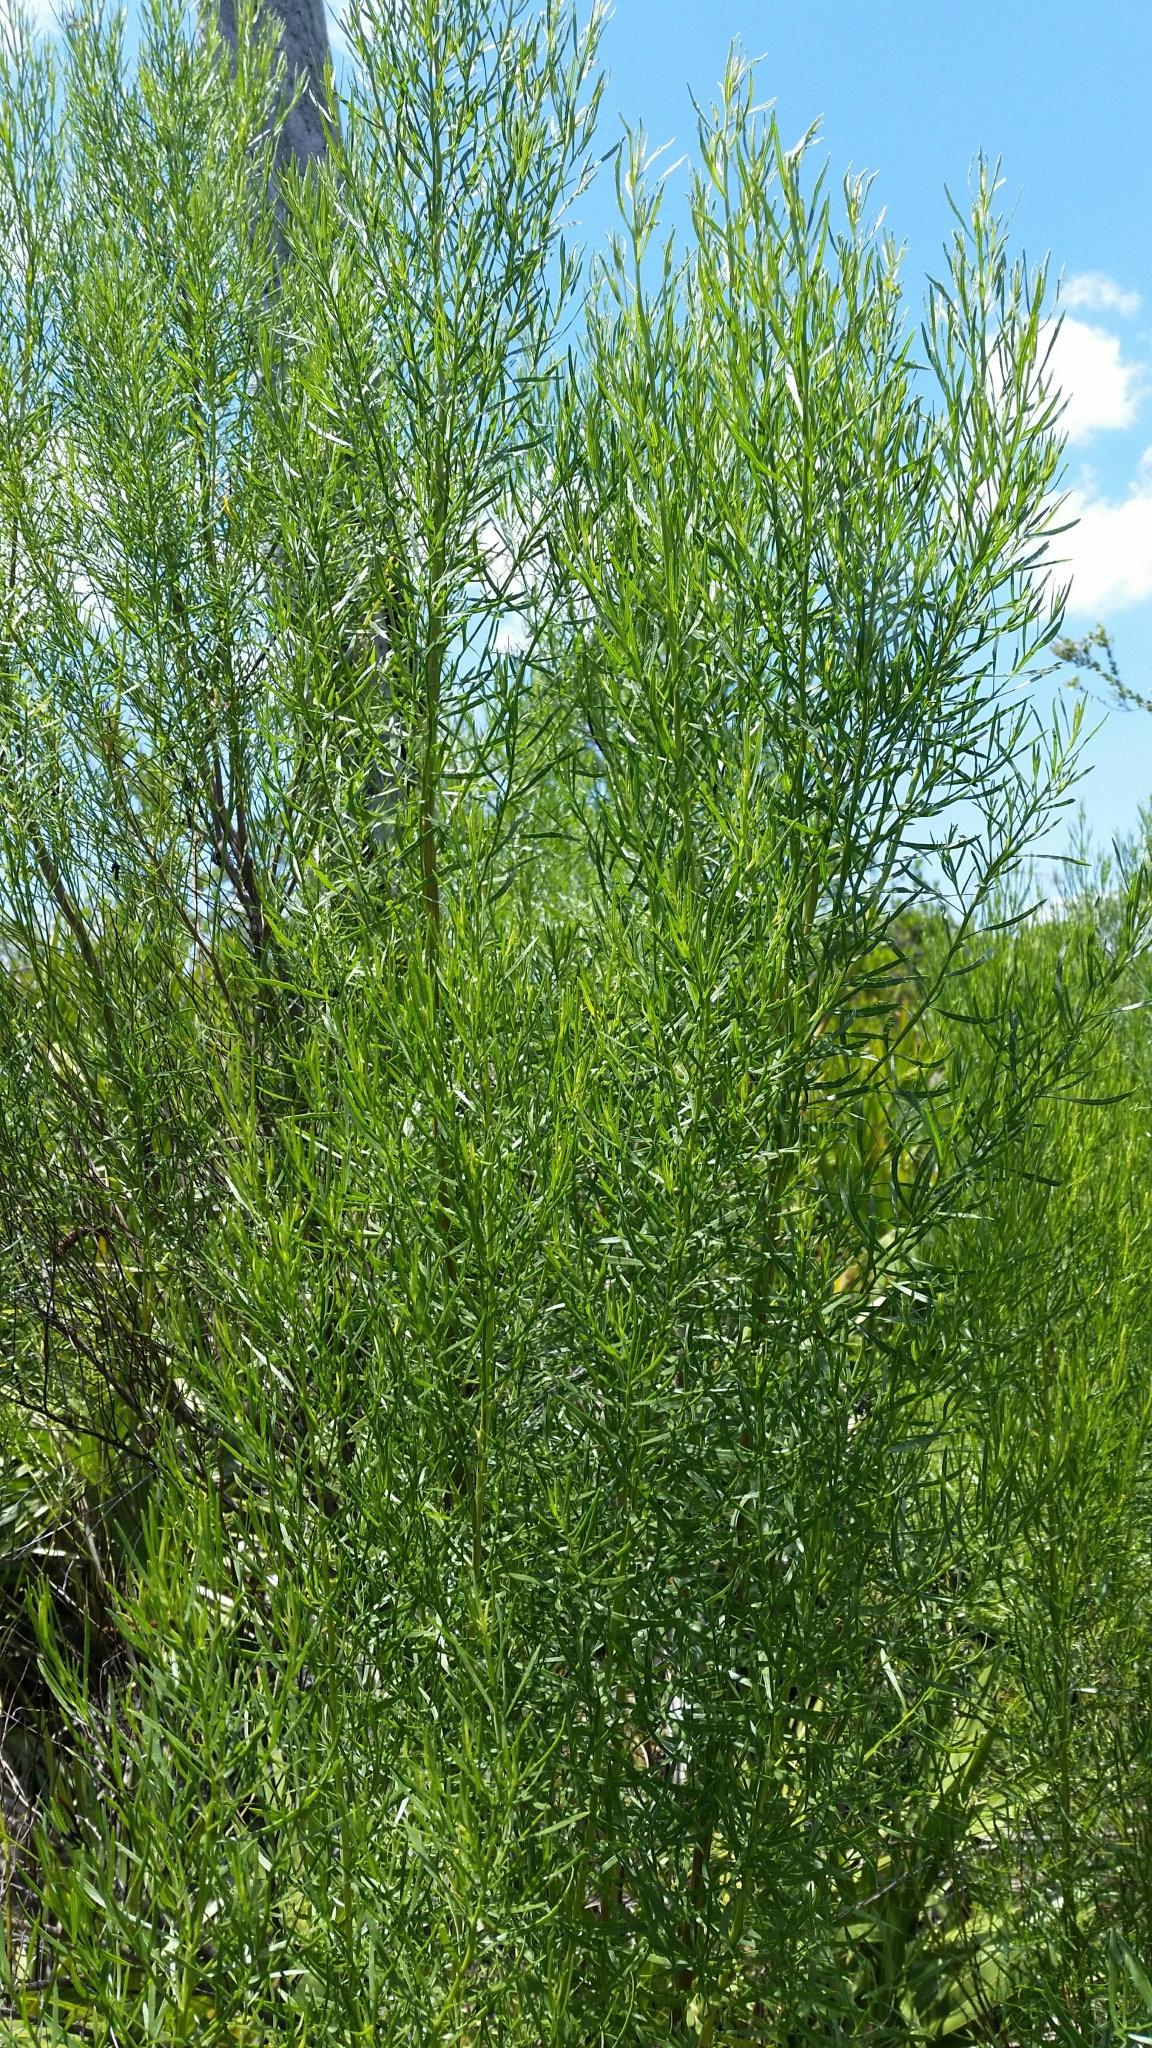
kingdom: Plantae
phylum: Tracheophyta
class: Magnoliopsida
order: Asterales
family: Asteraceae
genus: Baccharis
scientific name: Baccharis angustifolia
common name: Narrow-leaf baccharis
